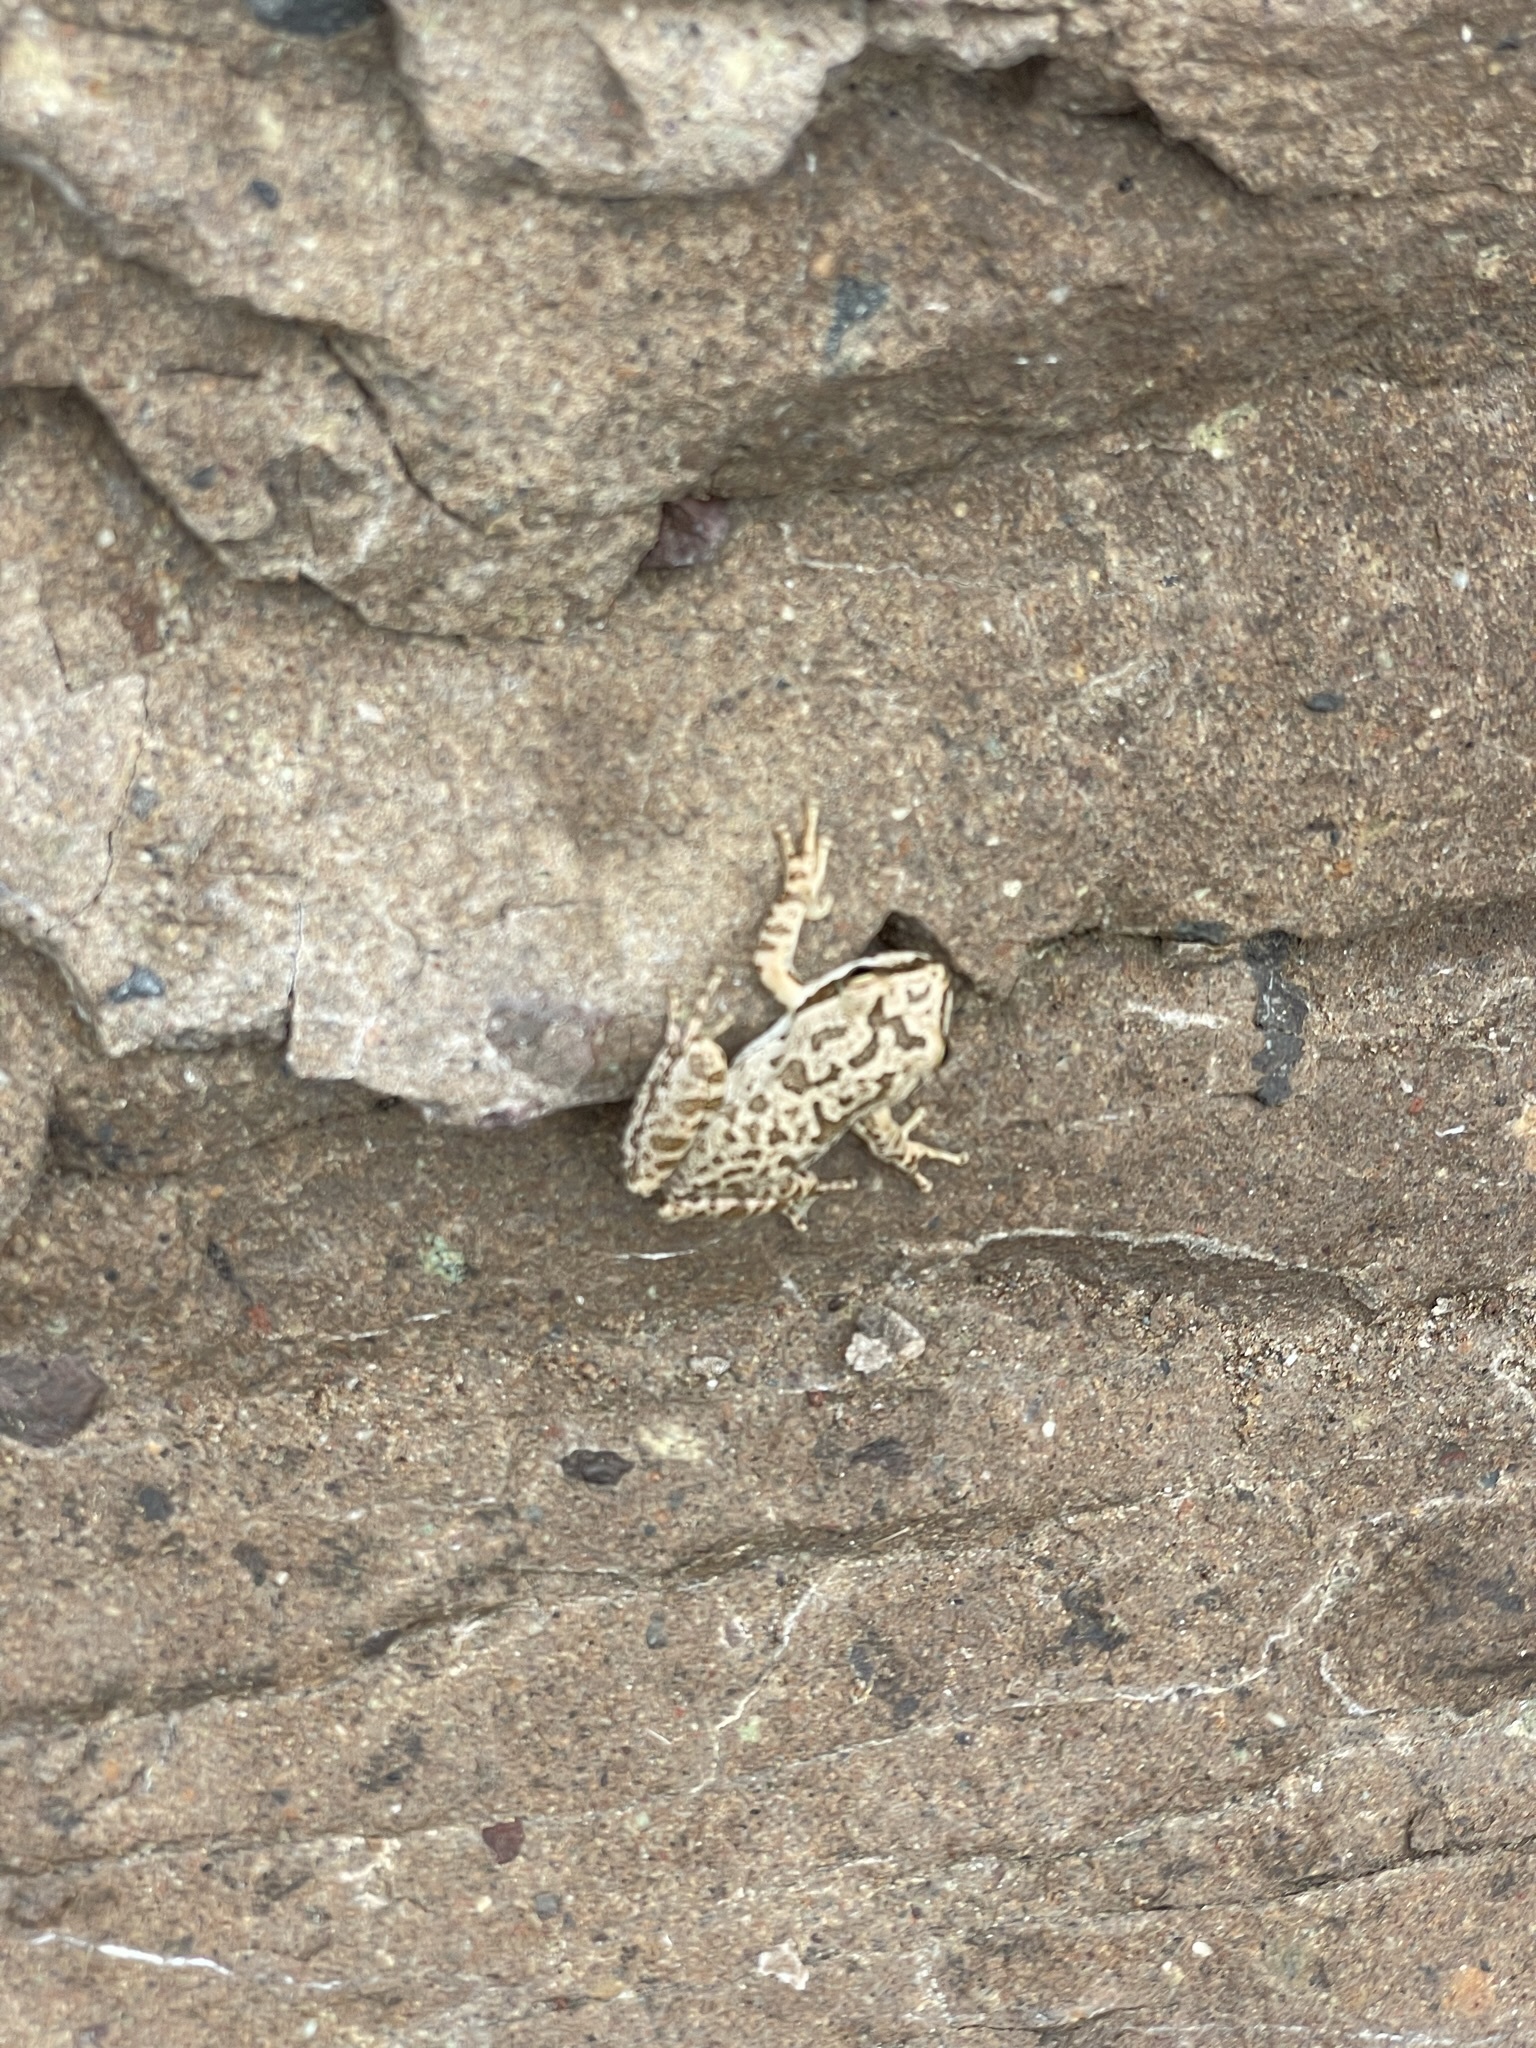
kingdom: Animalia
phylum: Chordata
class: Amphibia
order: Anura
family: Hylidae
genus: Pseudacris
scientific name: Pseudacris regilla
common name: Pacific chorus frog
